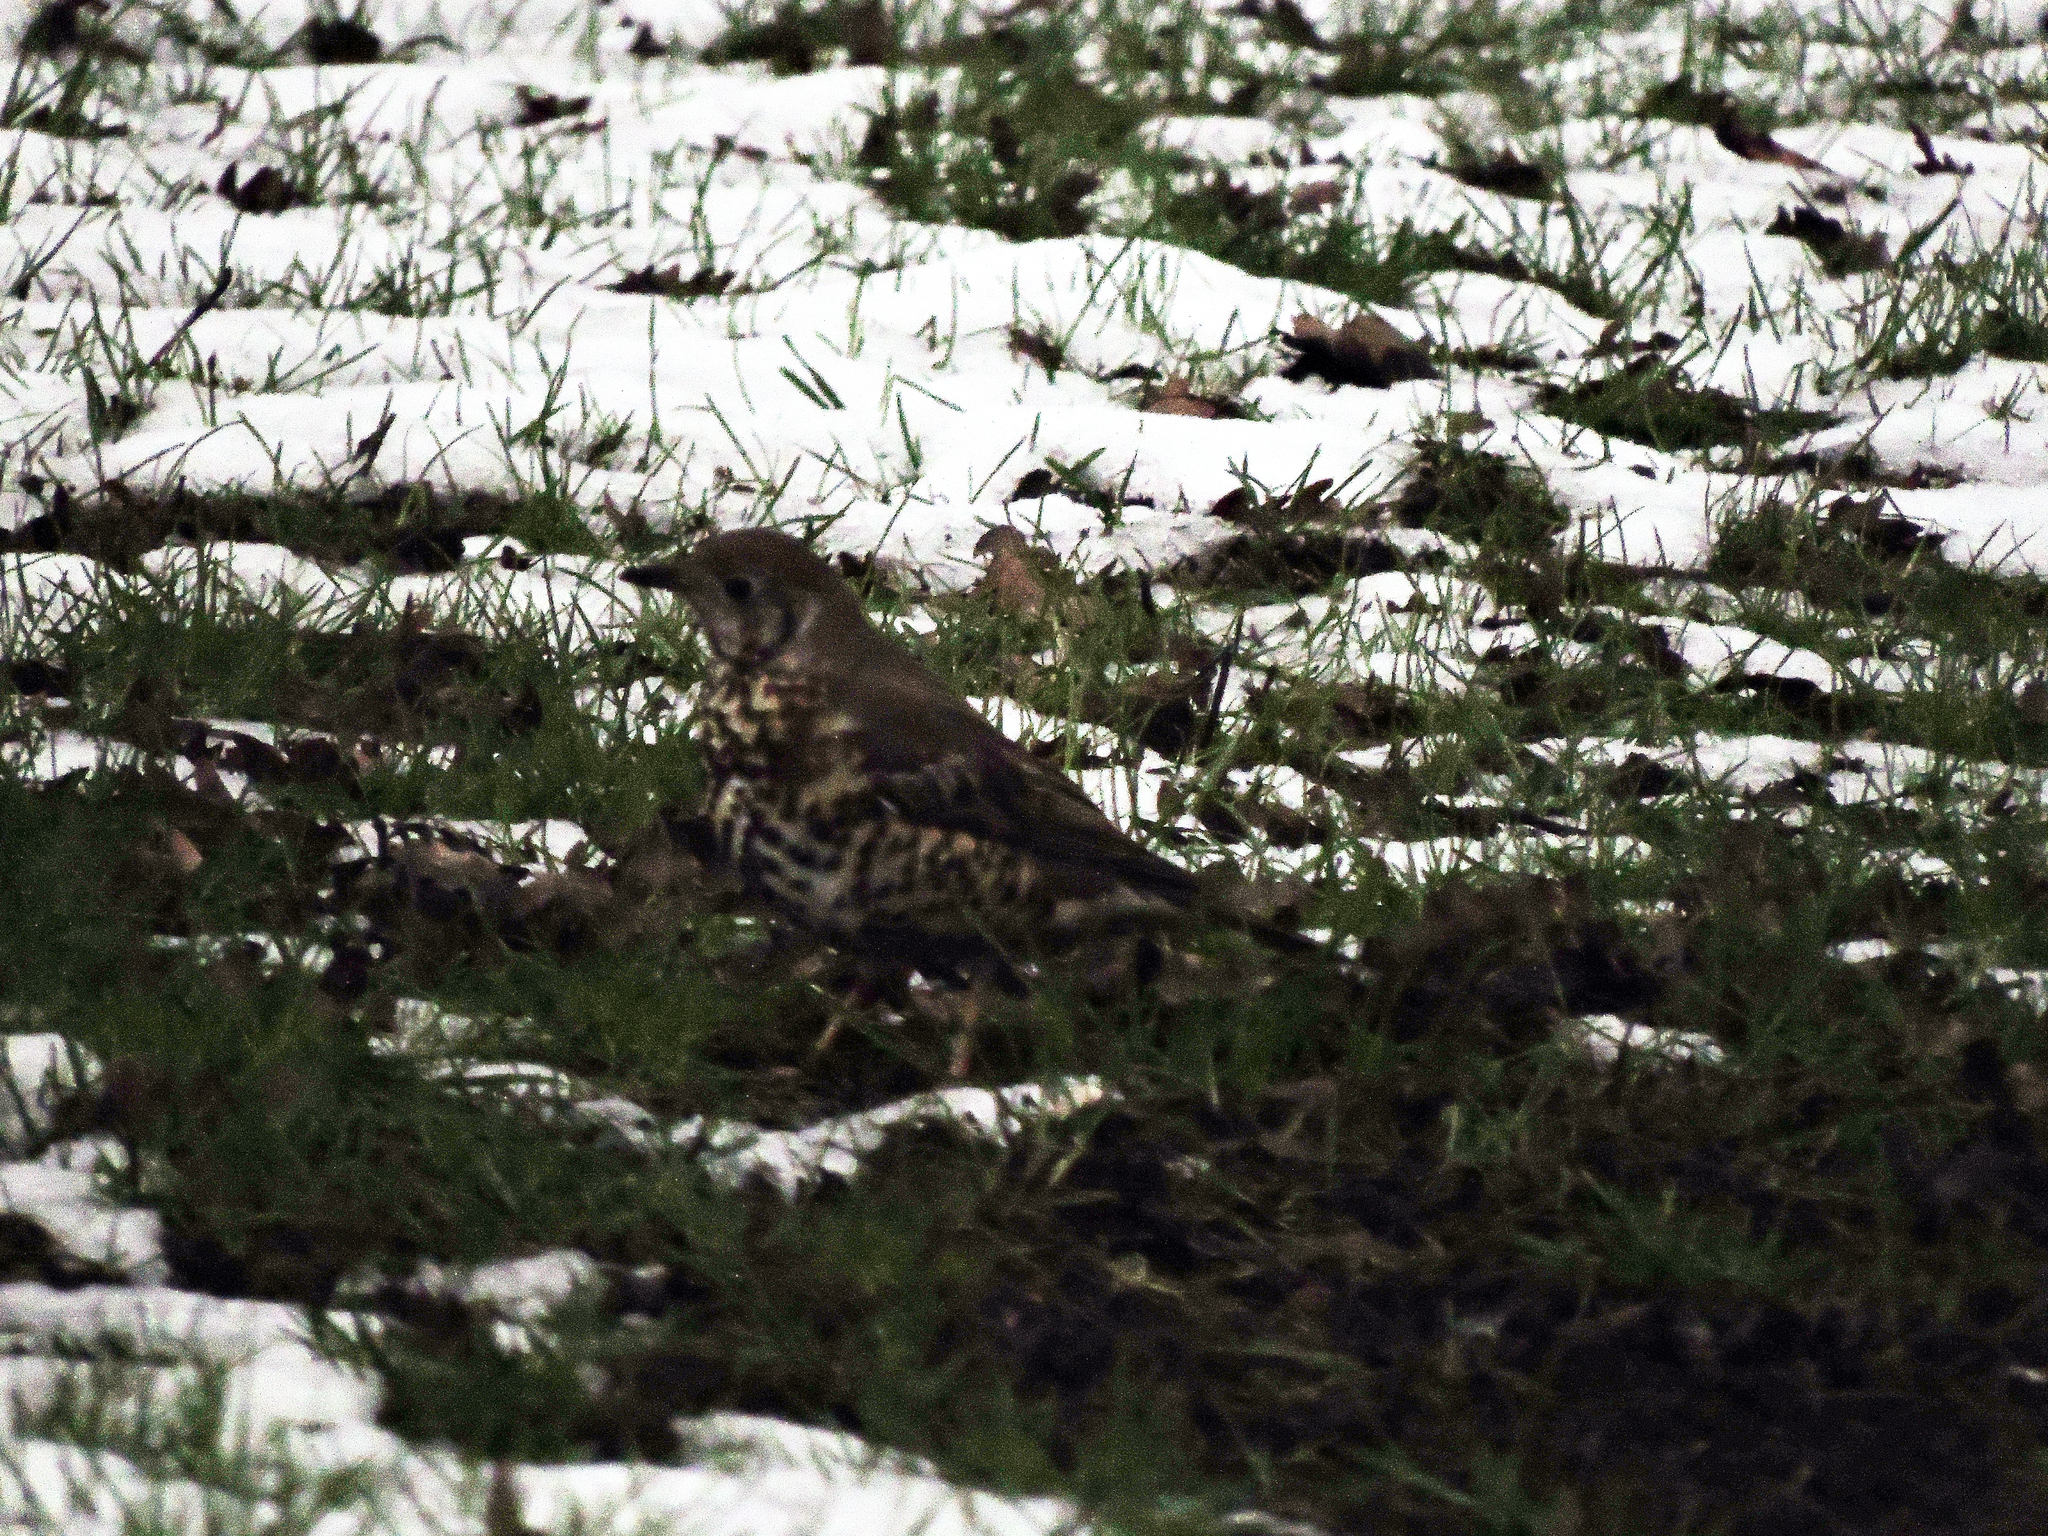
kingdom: Animalia
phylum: Chordata
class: Aves
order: Passeriformes
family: Turdidae
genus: Turdus
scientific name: Turdus viscivorus
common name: Mistle thrush
